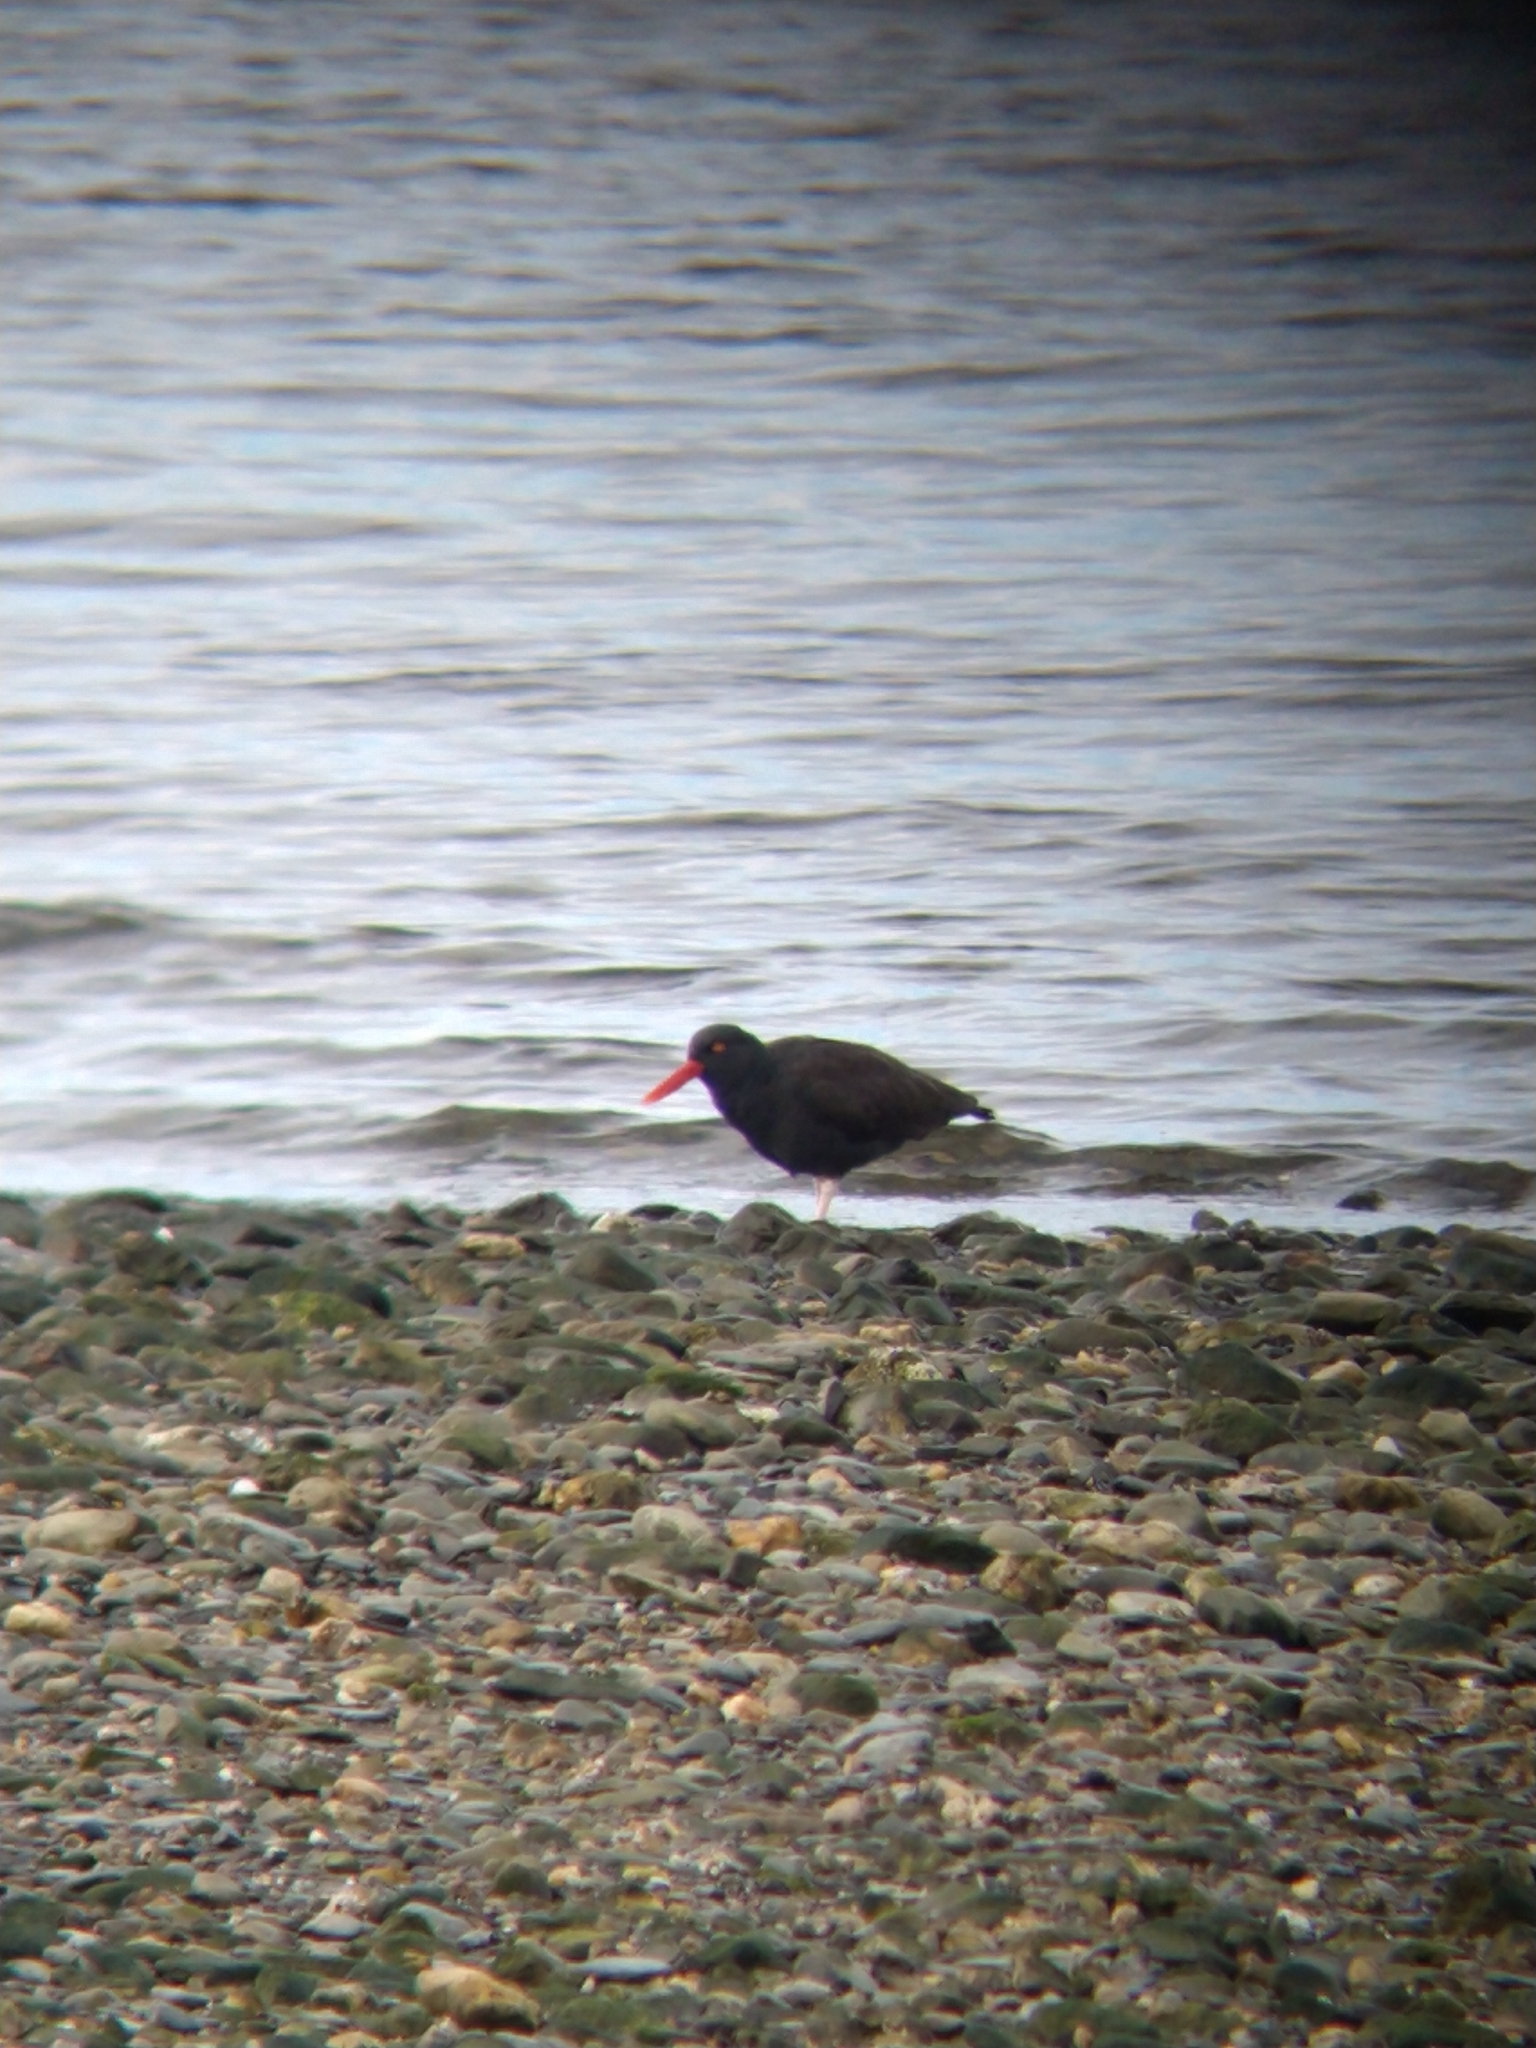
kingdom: Animalia
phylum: Chordata
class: Aves
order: Charadriiformes
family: Haematopodidae
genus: Haematopus
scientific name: Haematopus ater
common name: Blackish oystercatcher
